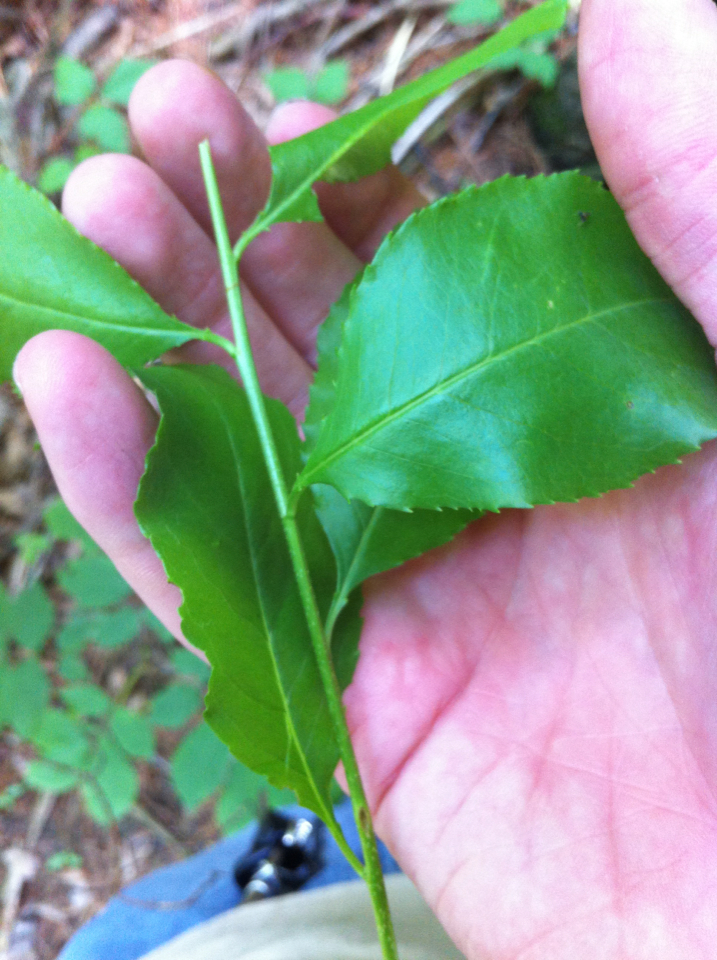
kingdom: Plantae
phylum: Tracheophyta
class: Magnoliopsida
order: Rosales
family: Rosaceae
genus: Prunus
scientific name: Prunus serotina
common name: Black cherry
